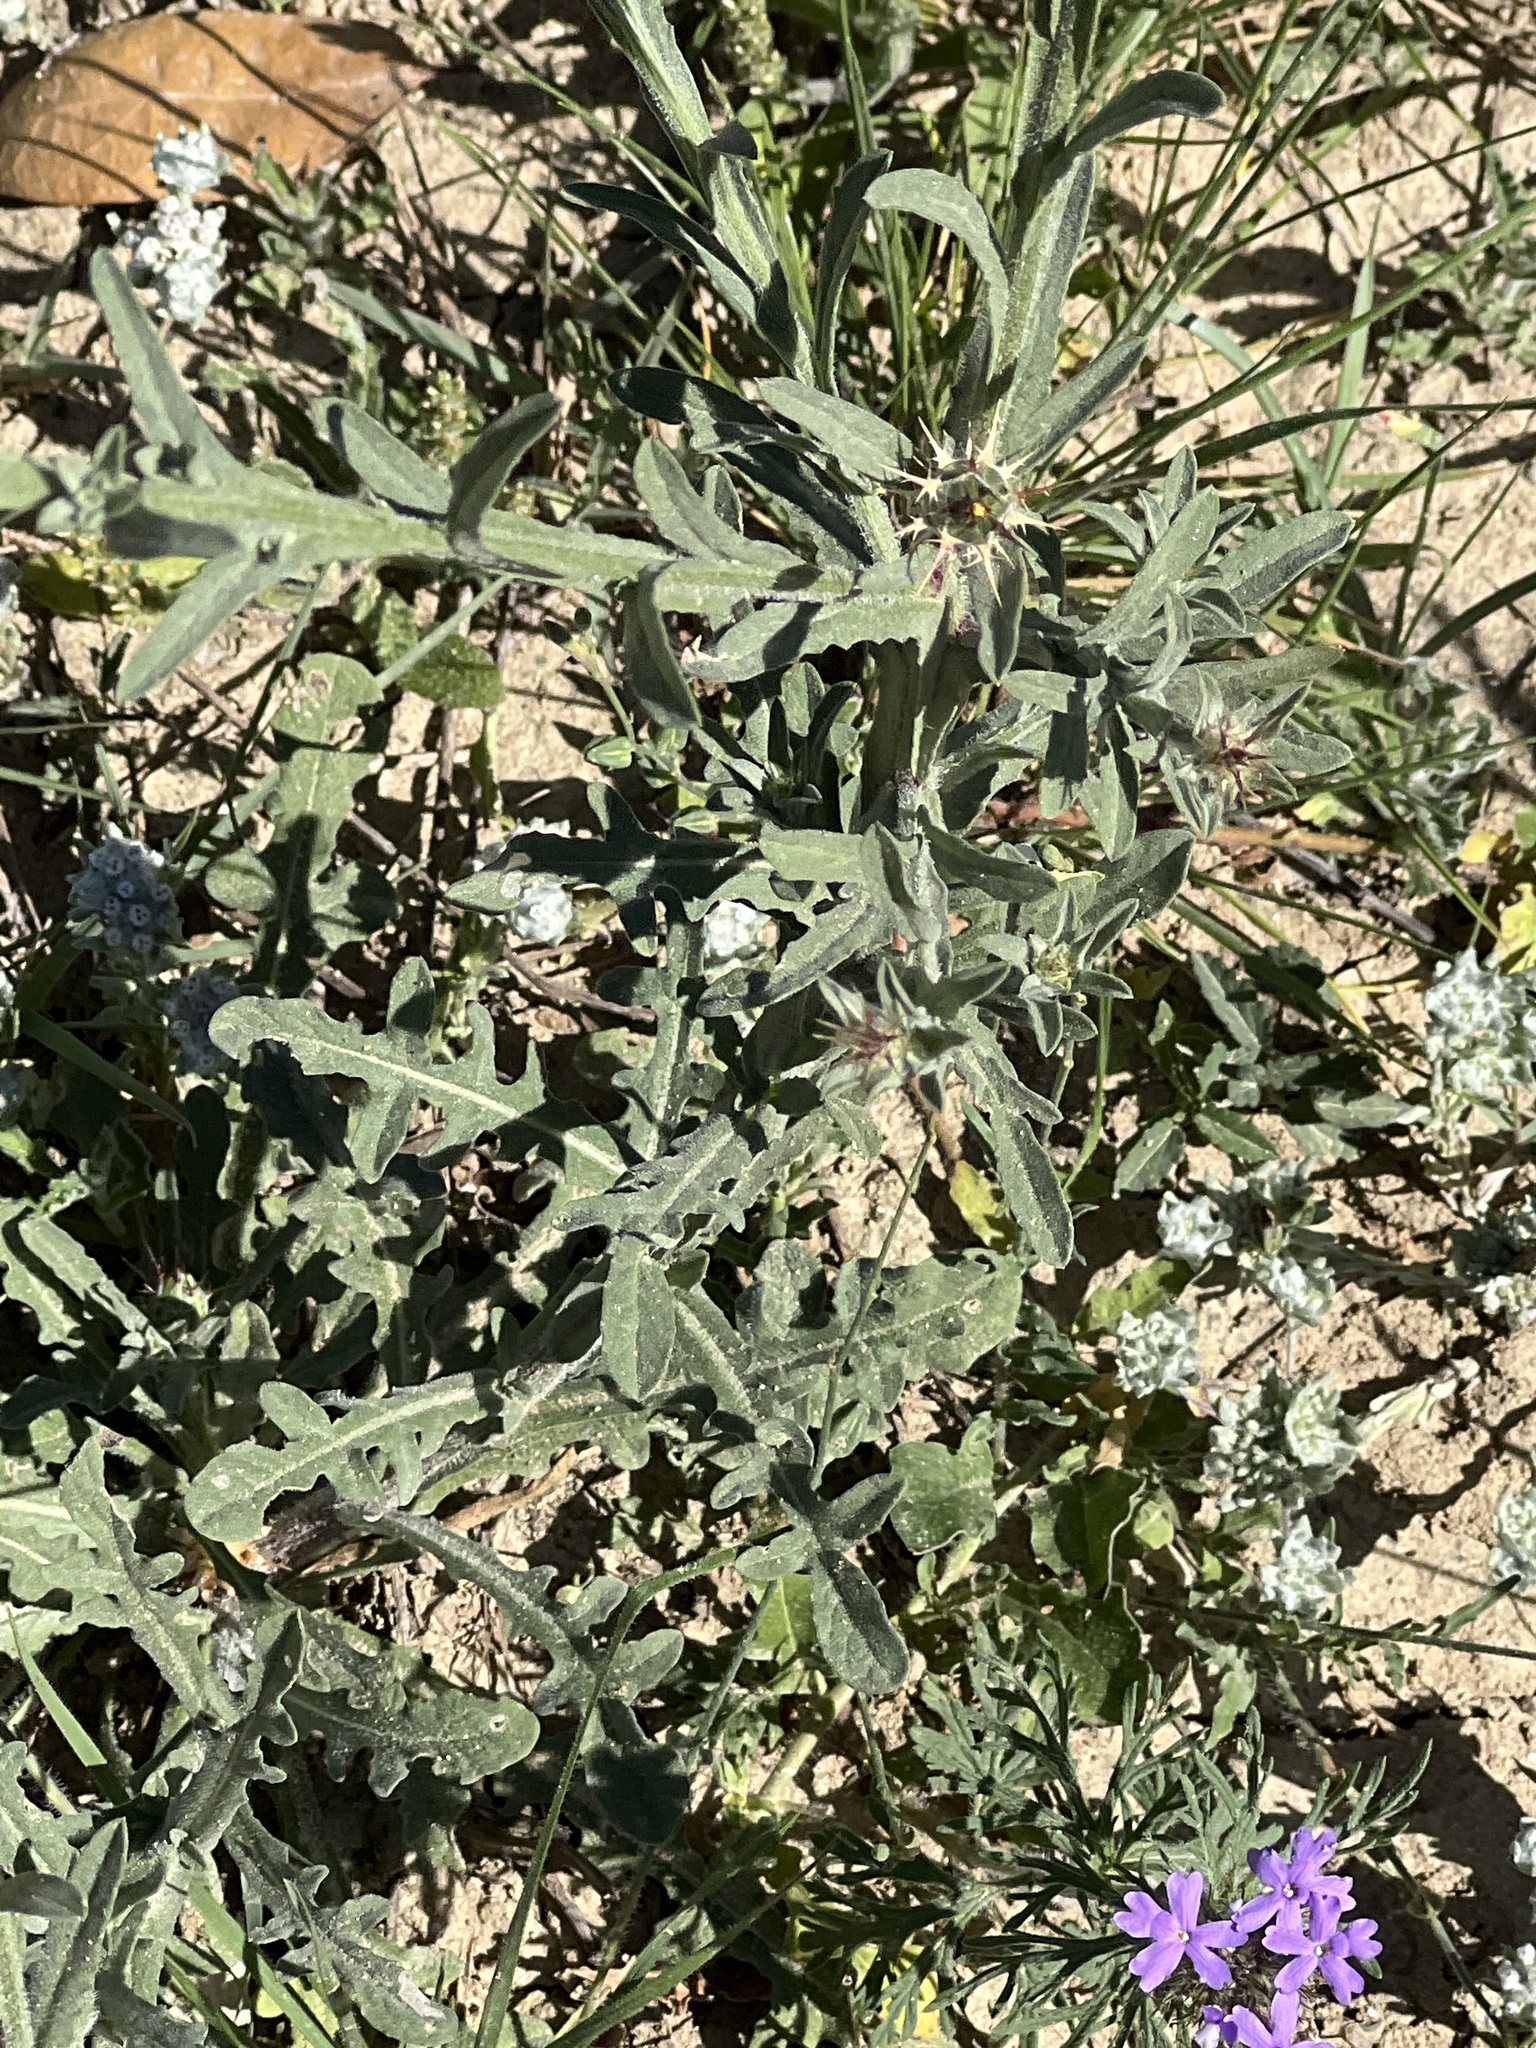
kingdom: Plantae
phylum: Tracheophyta
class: Magnoliopsida
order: Asterales
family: Asteraceae
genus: Centaurea
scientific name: Centaurea melitensis
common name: Maltese star-thistle
